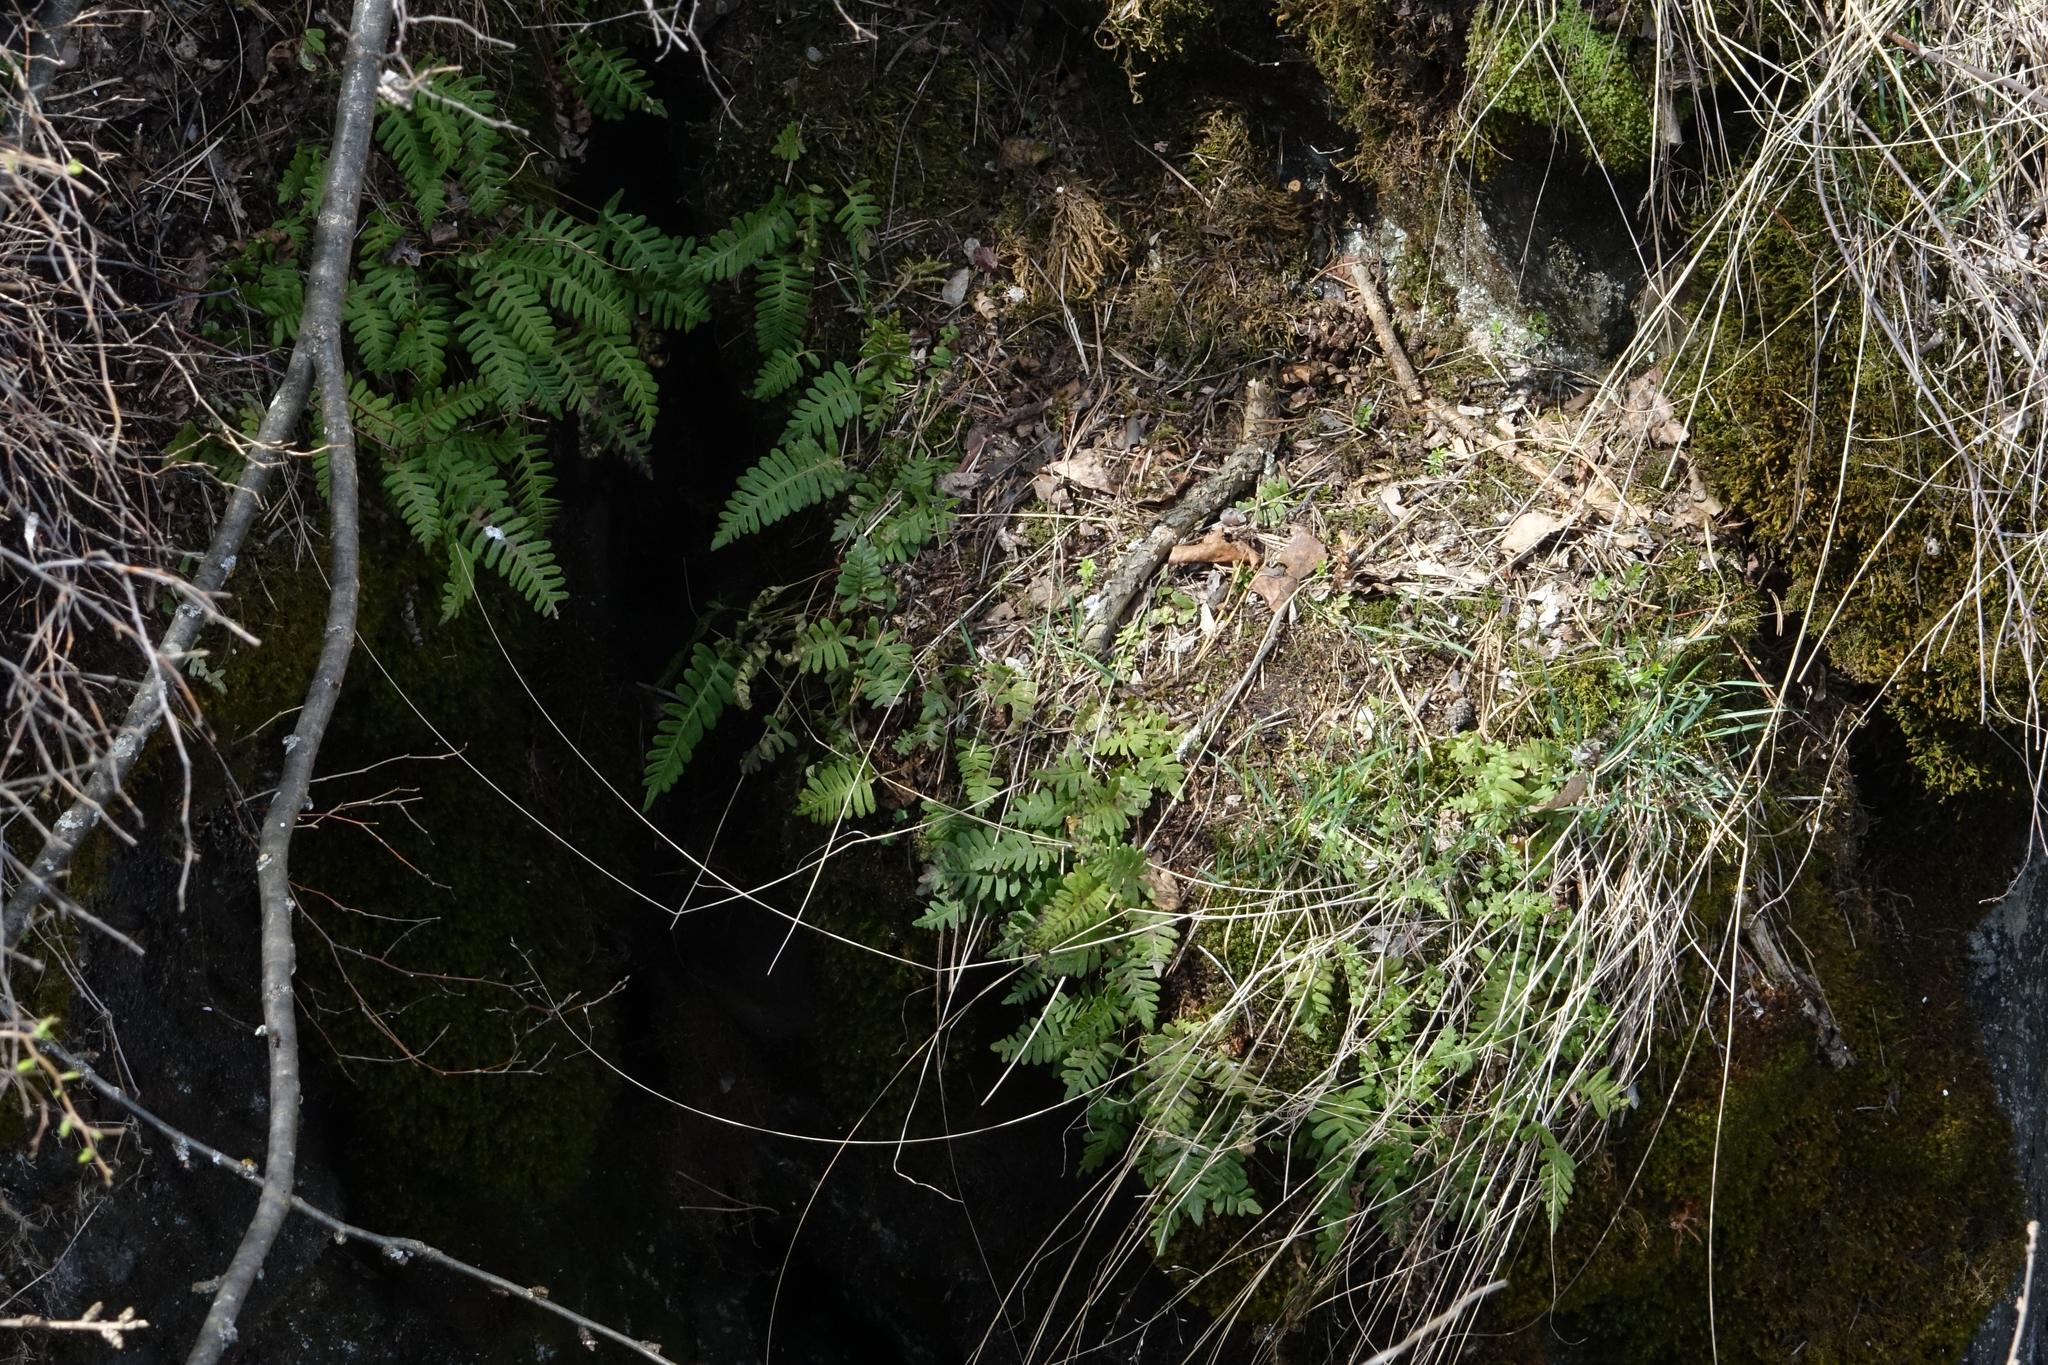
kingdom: Plantae
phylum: Tracheophyta
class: Polypodiopsida
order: Polypodiales
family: Polypodiaceae
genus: Polypodium
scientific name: Polypodium sibiricum
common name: Siberian polypody
